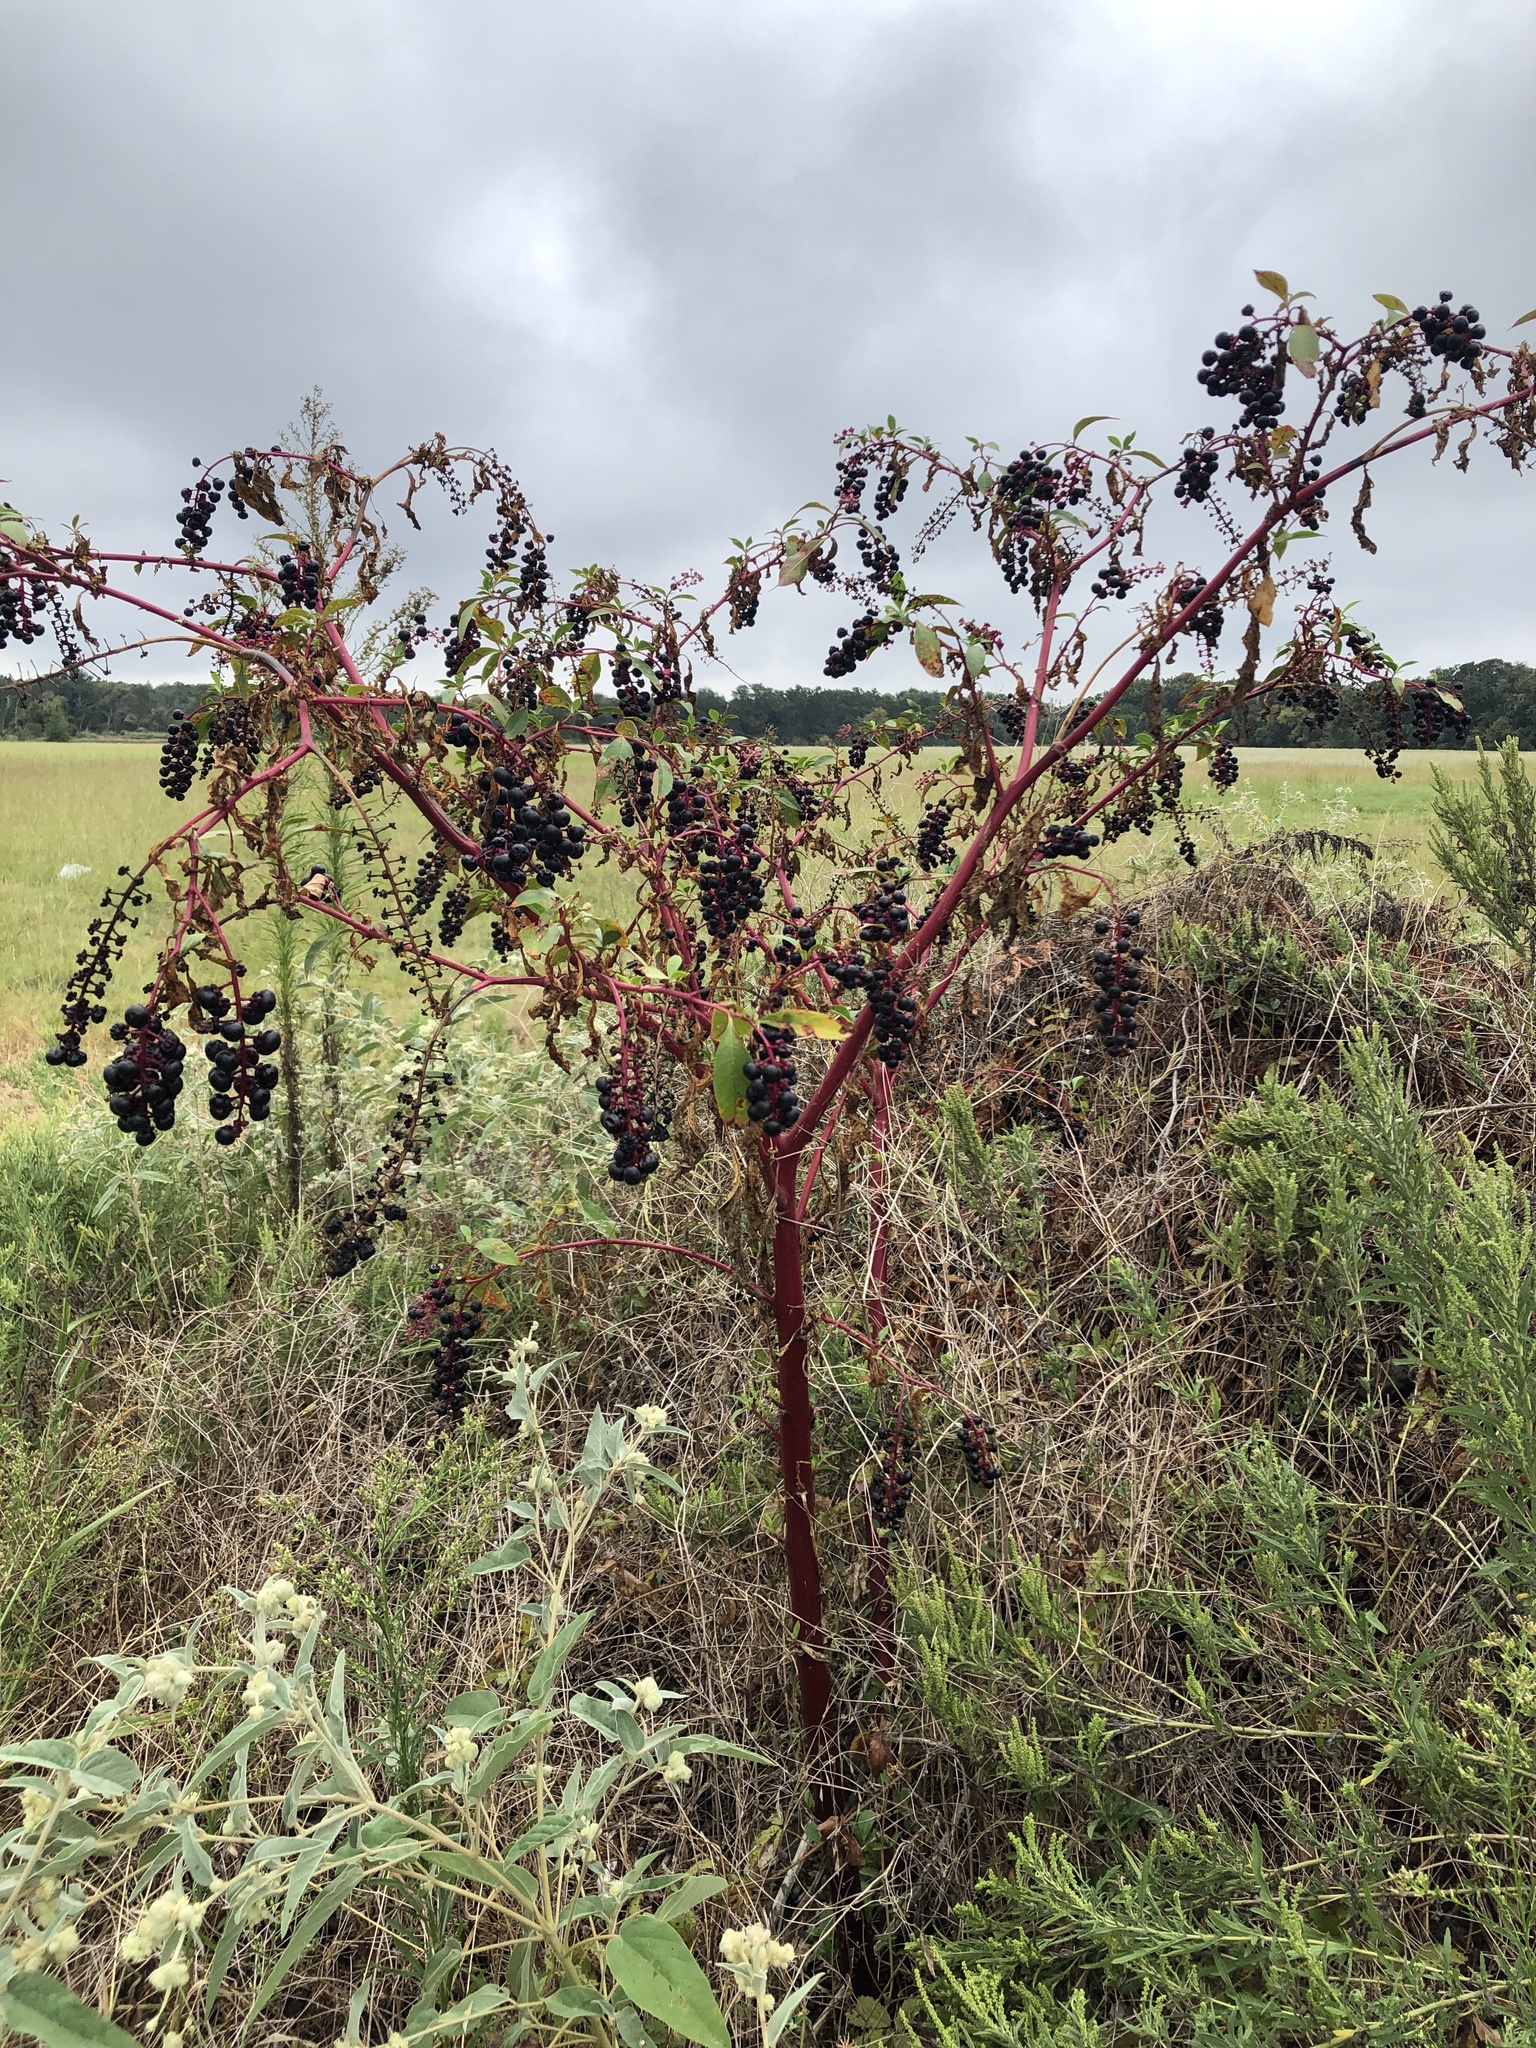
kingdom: Plantae
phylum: Tracheophyta
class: Magnoliopsida
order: Caryophyllales
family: Phytolaccaceae
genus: Phytolacca
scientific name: Phytolacca americana
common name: American pokeweed
